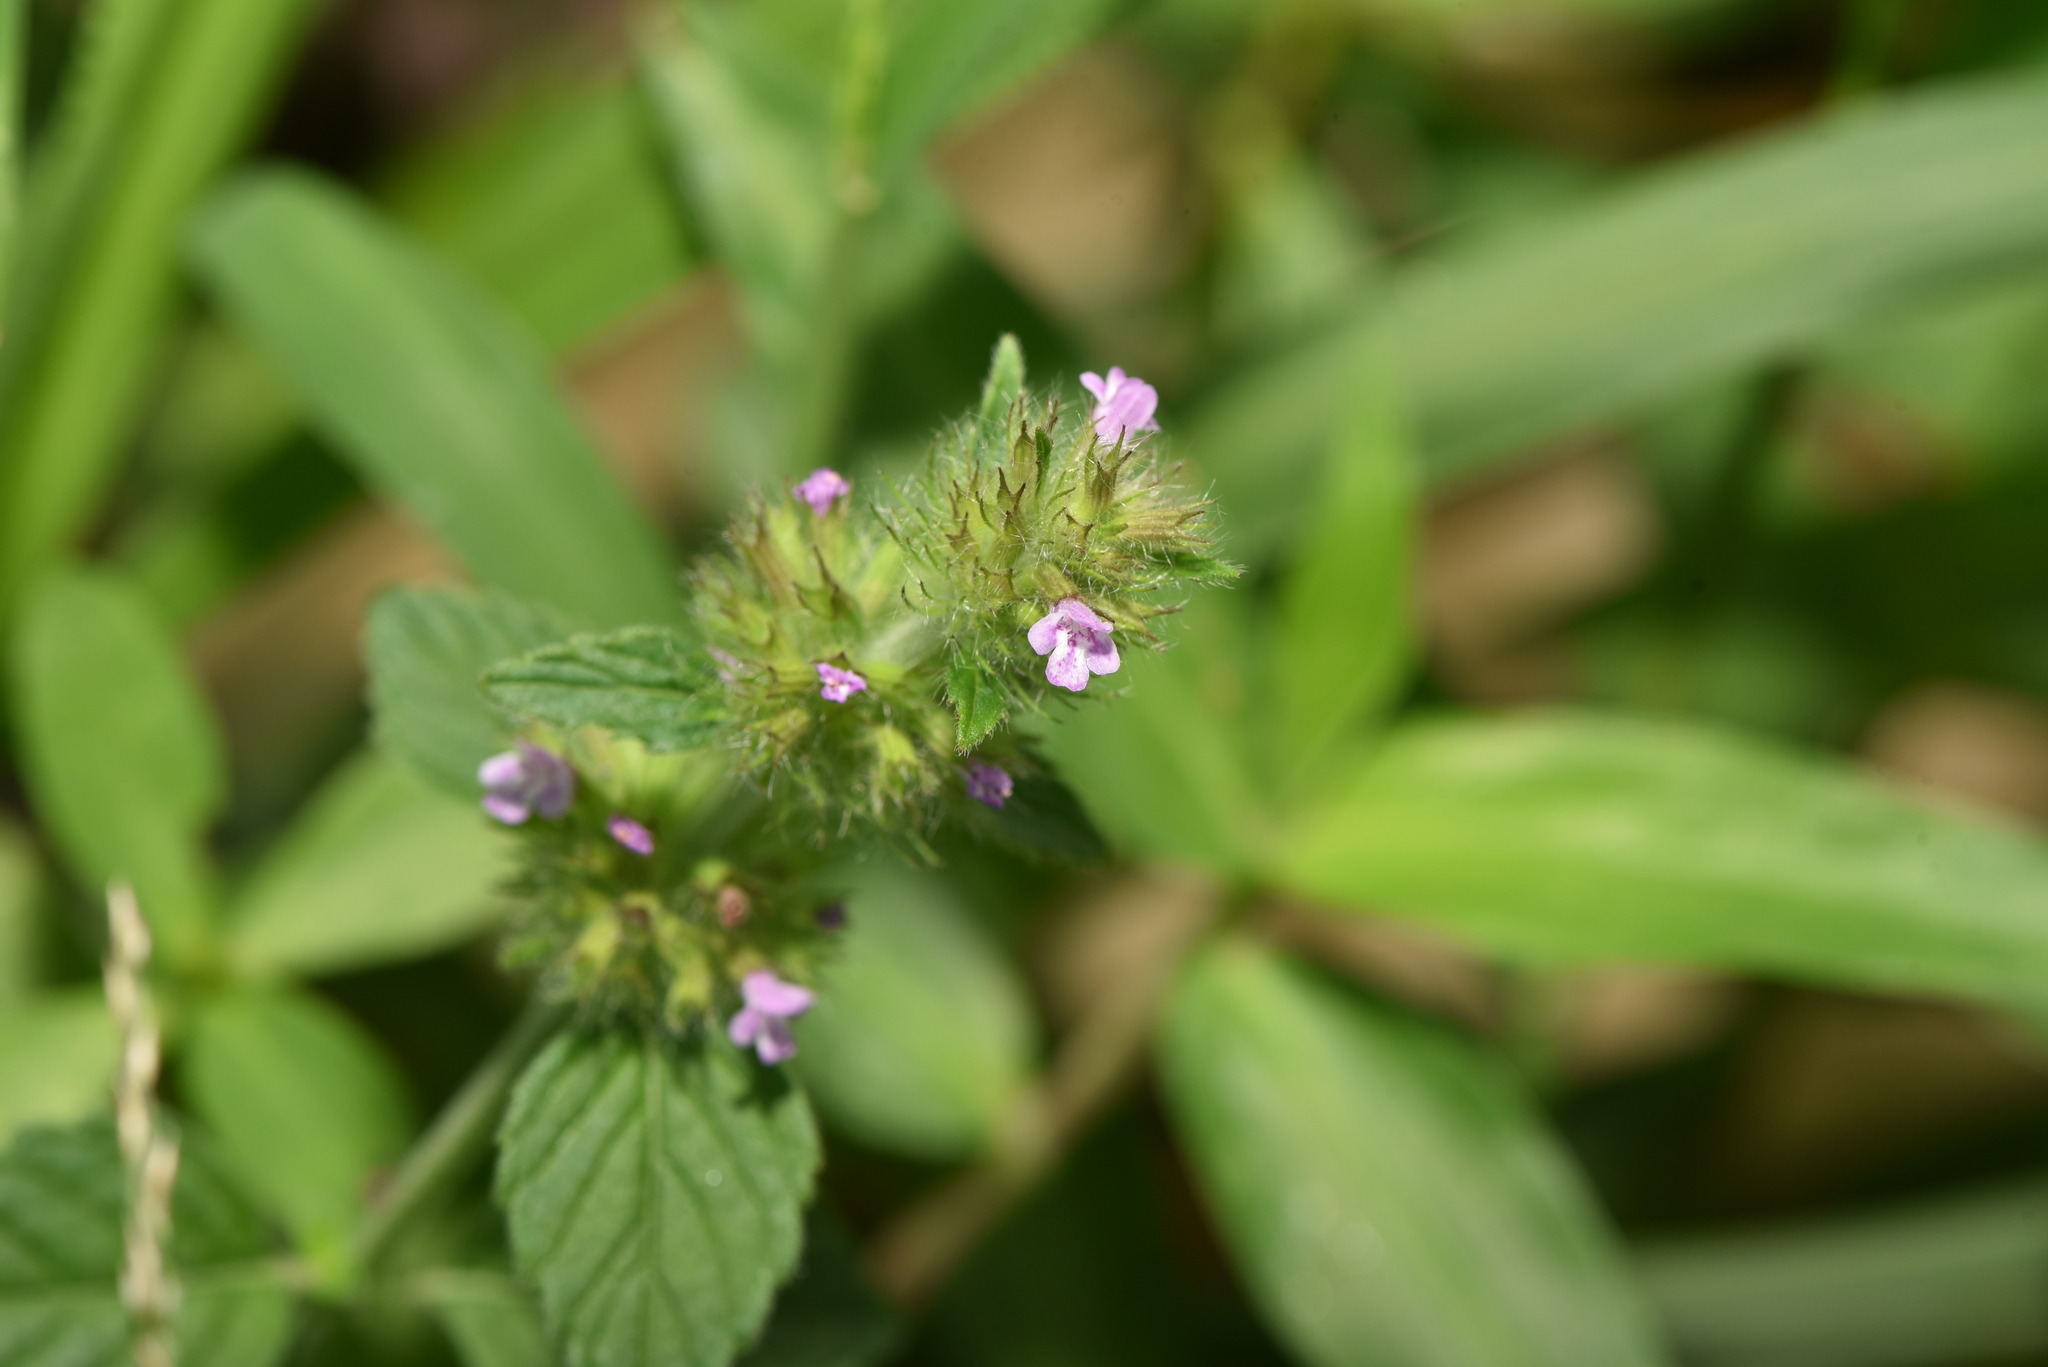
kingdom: Plantae
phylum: Tracheophyta
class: Magnoliopsida
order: Lamiales
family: Lamiaceae
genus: Clinopodium
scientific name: Clinopodium chinense
